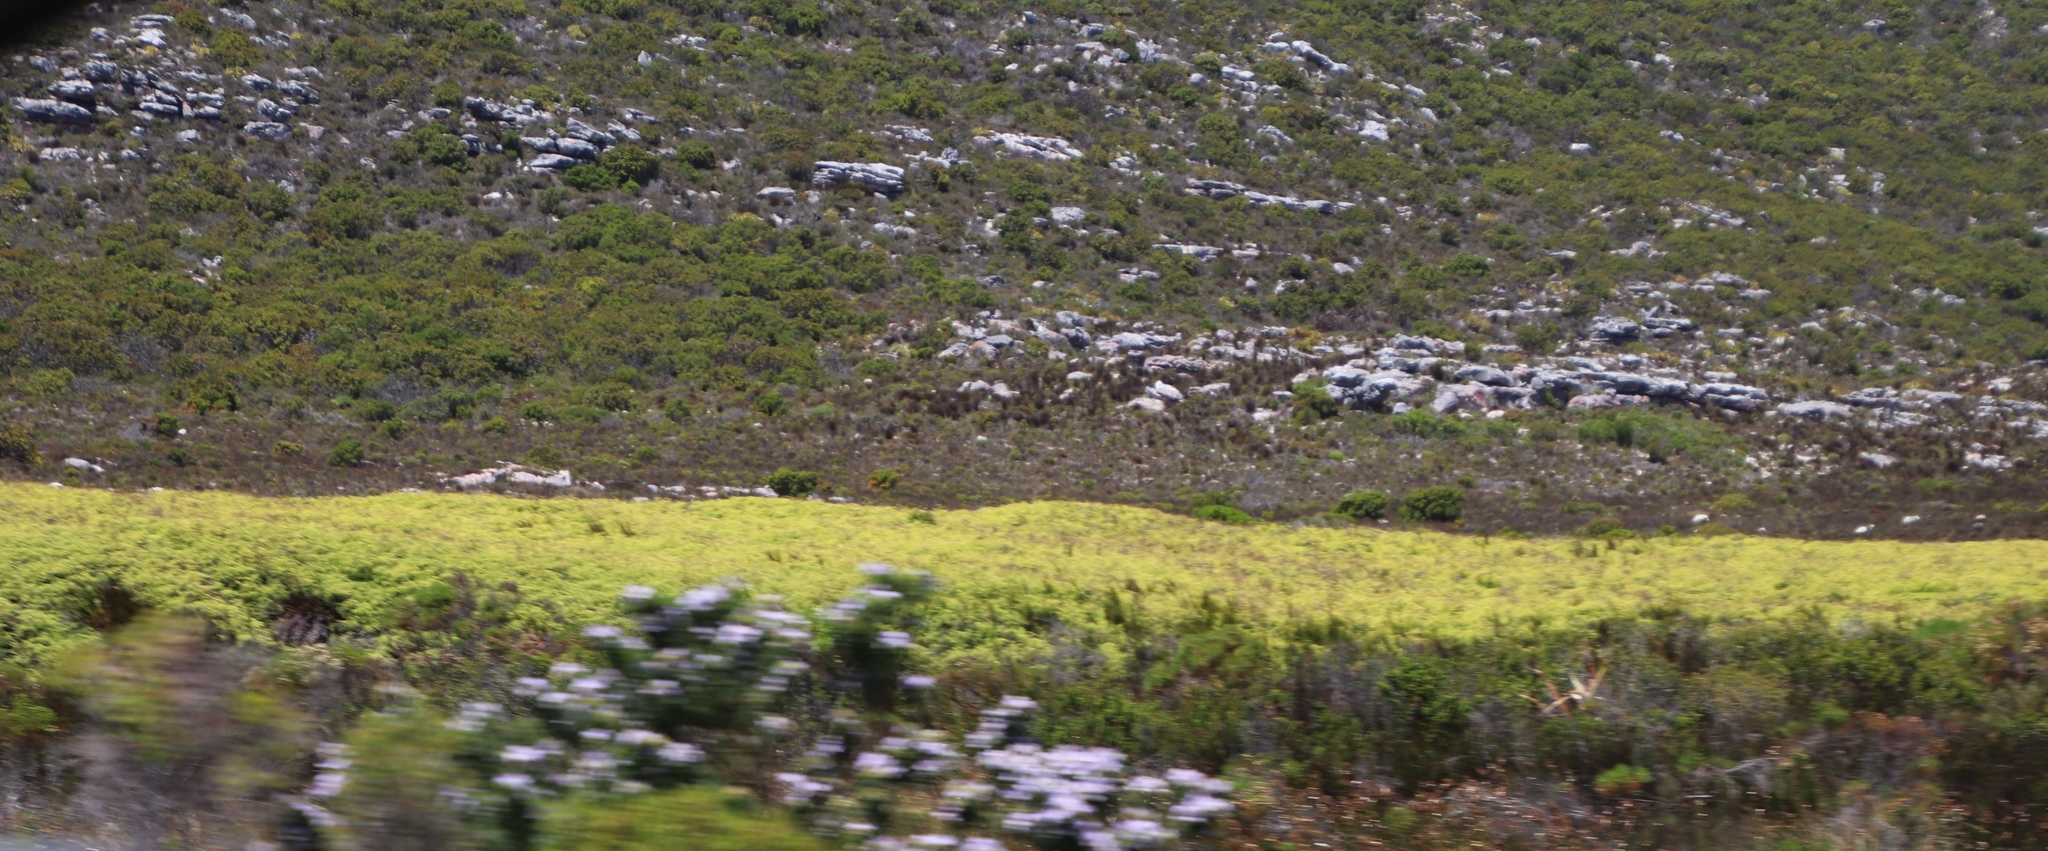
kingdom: Plantae
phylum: Tracheophyta
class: Polypodiopsida
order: Gleicheniales
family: Gleicheniaceae
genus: Gleichenia
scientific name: Gleichenia polypodioides
